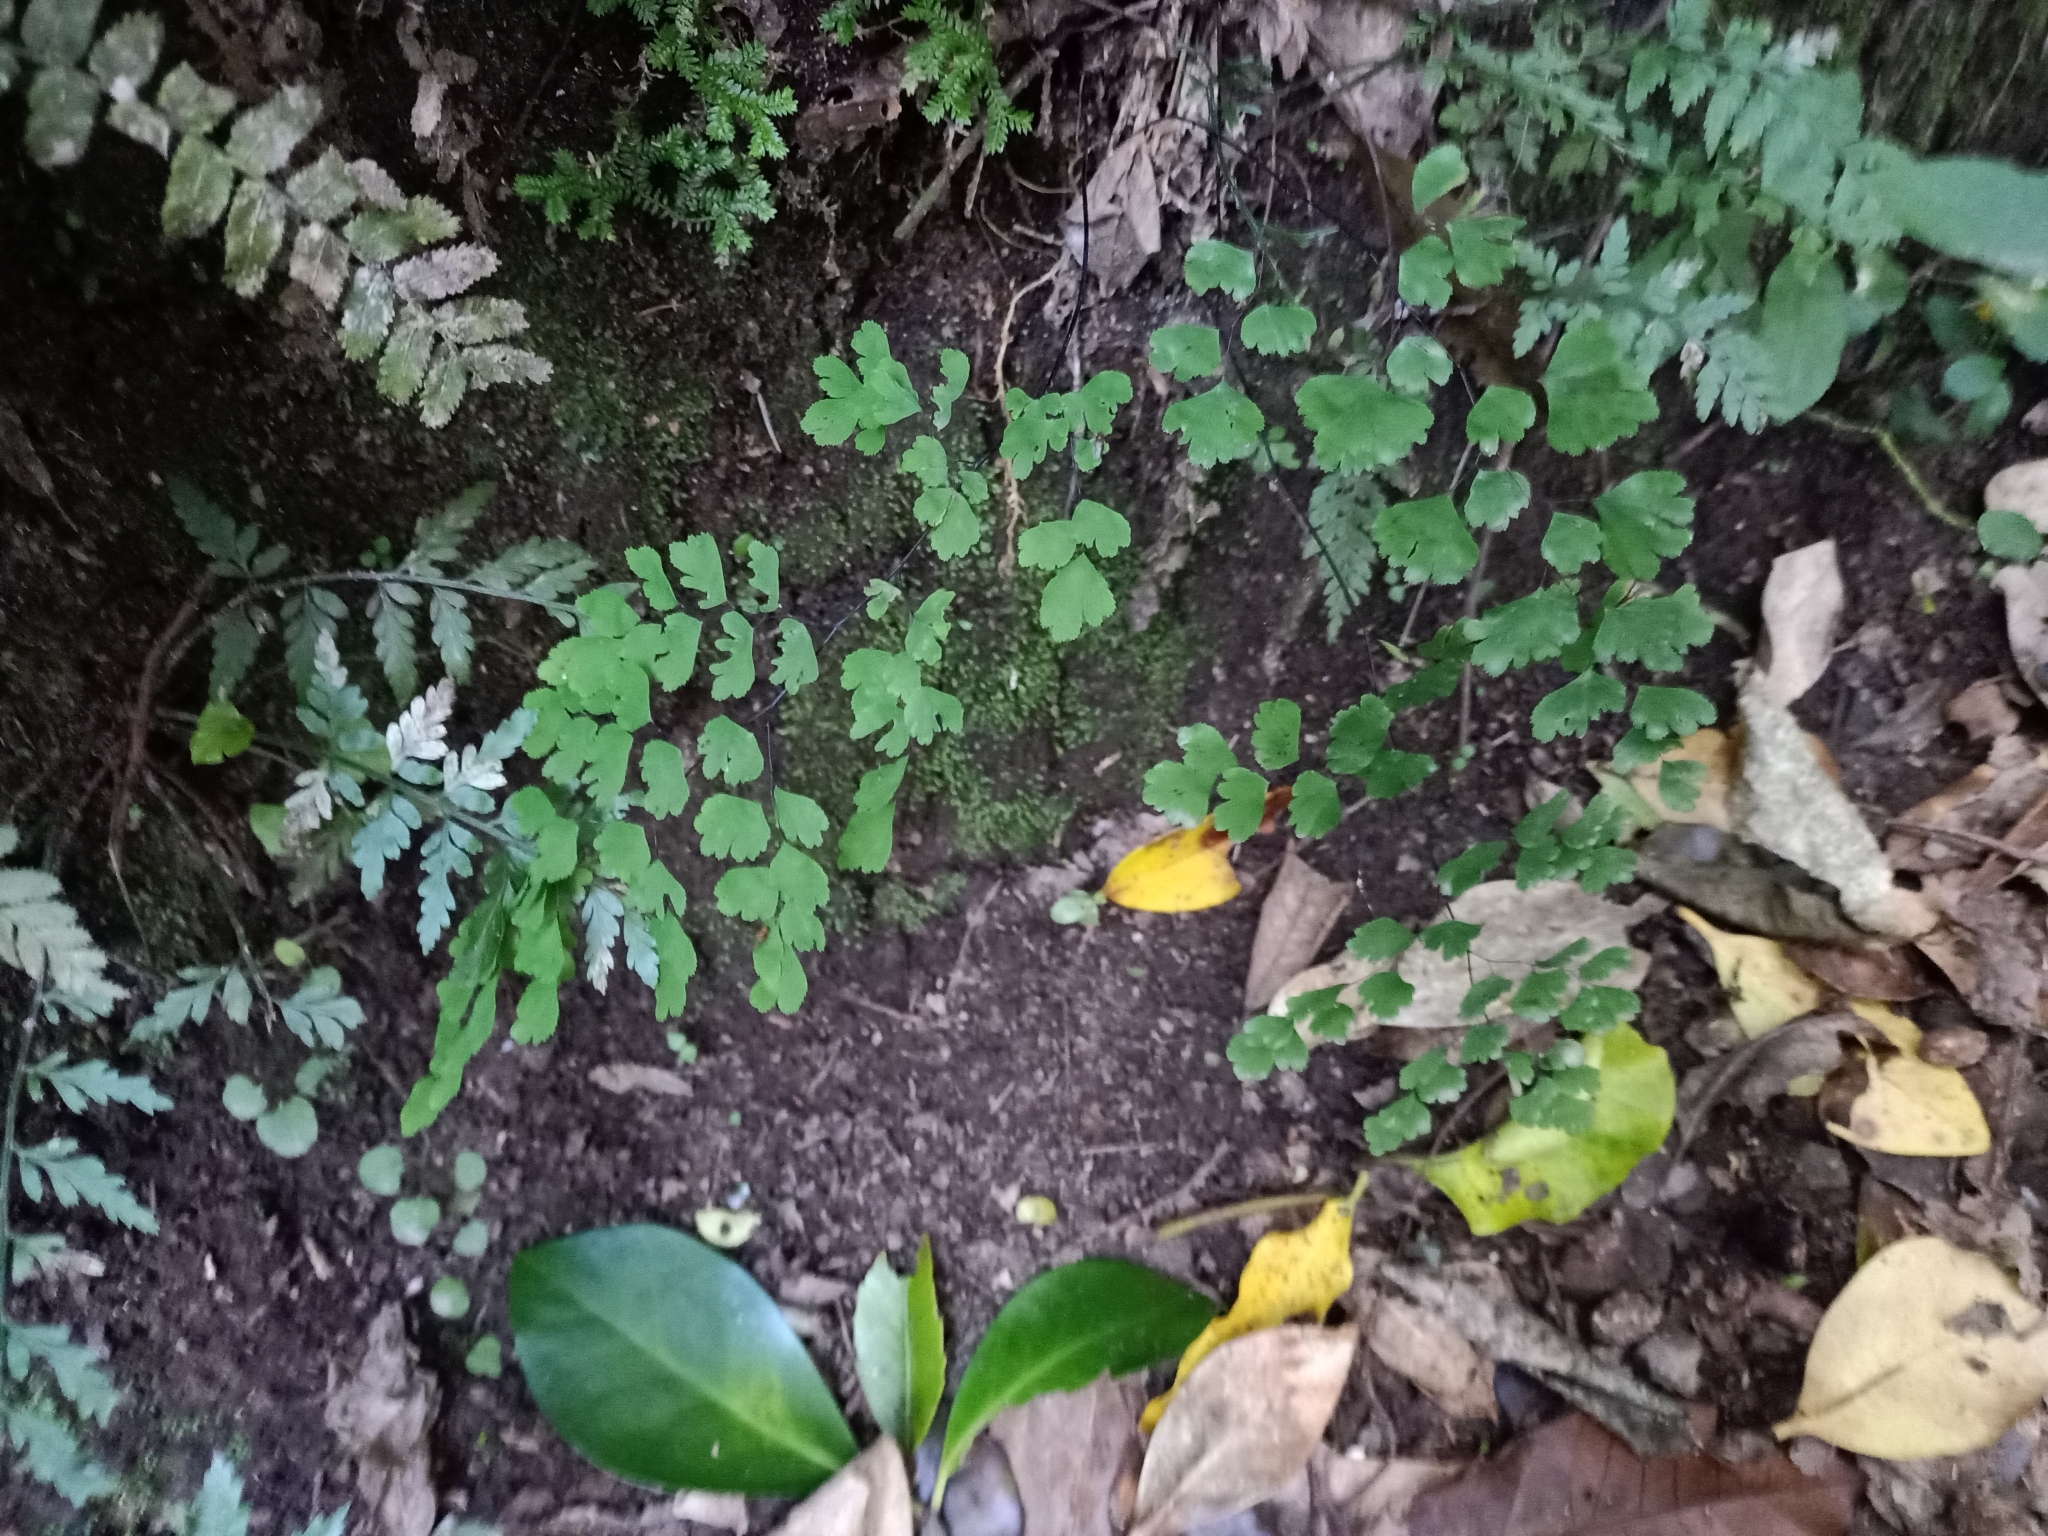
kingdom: Plantae
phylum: Tracheophyta
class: Polypodiopsida
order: Polypodiales
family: Pteridaceae
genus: Adiantum
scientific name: Adiantum raddianum
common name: Delta maidenhair fern
